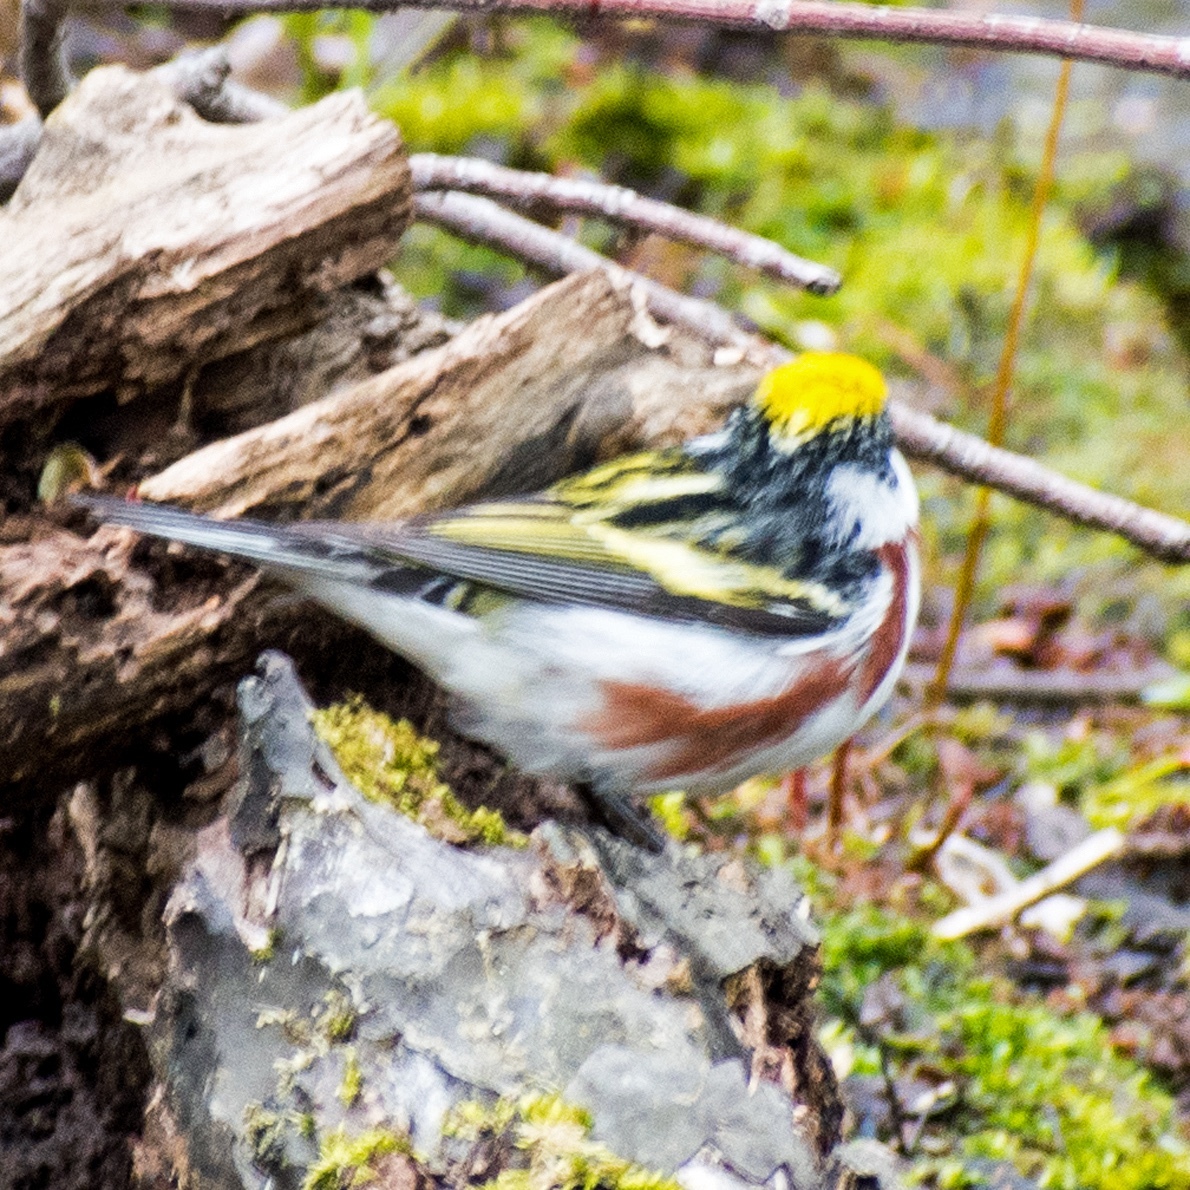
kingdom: Animalia
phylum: Chordata
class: Aves
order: Passeriformes
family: Parulidae
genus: Setophaga
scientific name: Setophaga pensylvanica
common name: Chestnut-sided warbler
